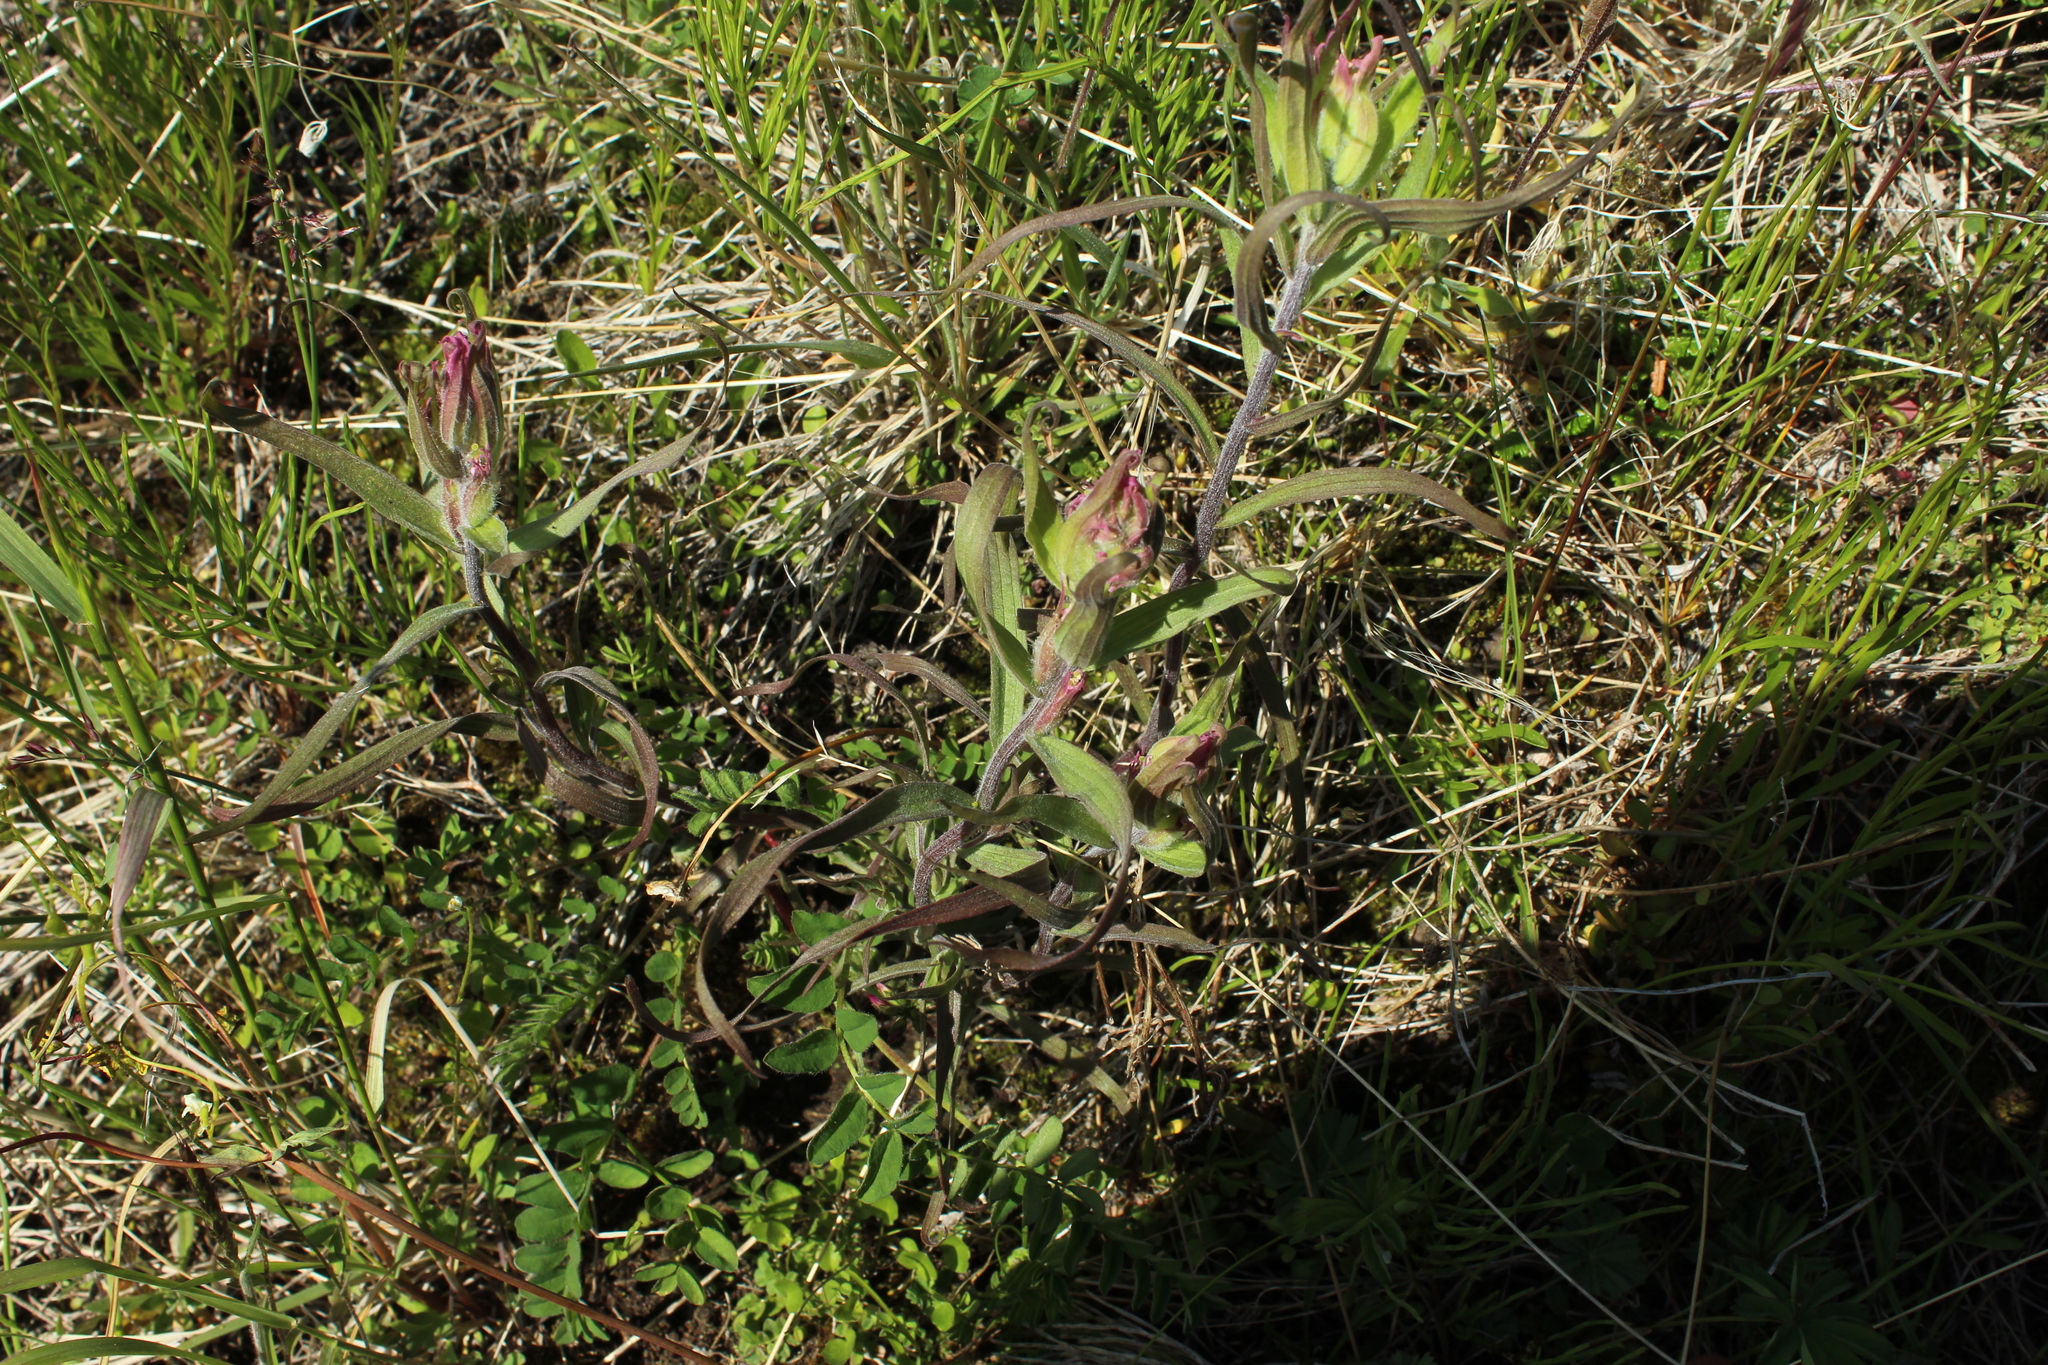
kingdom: Plantae
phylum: Tracheophyta
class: Magnoliopsida
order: Lamiales
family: Orobanchaceae
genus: Castilleja
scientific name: Castilleja hyparctica
